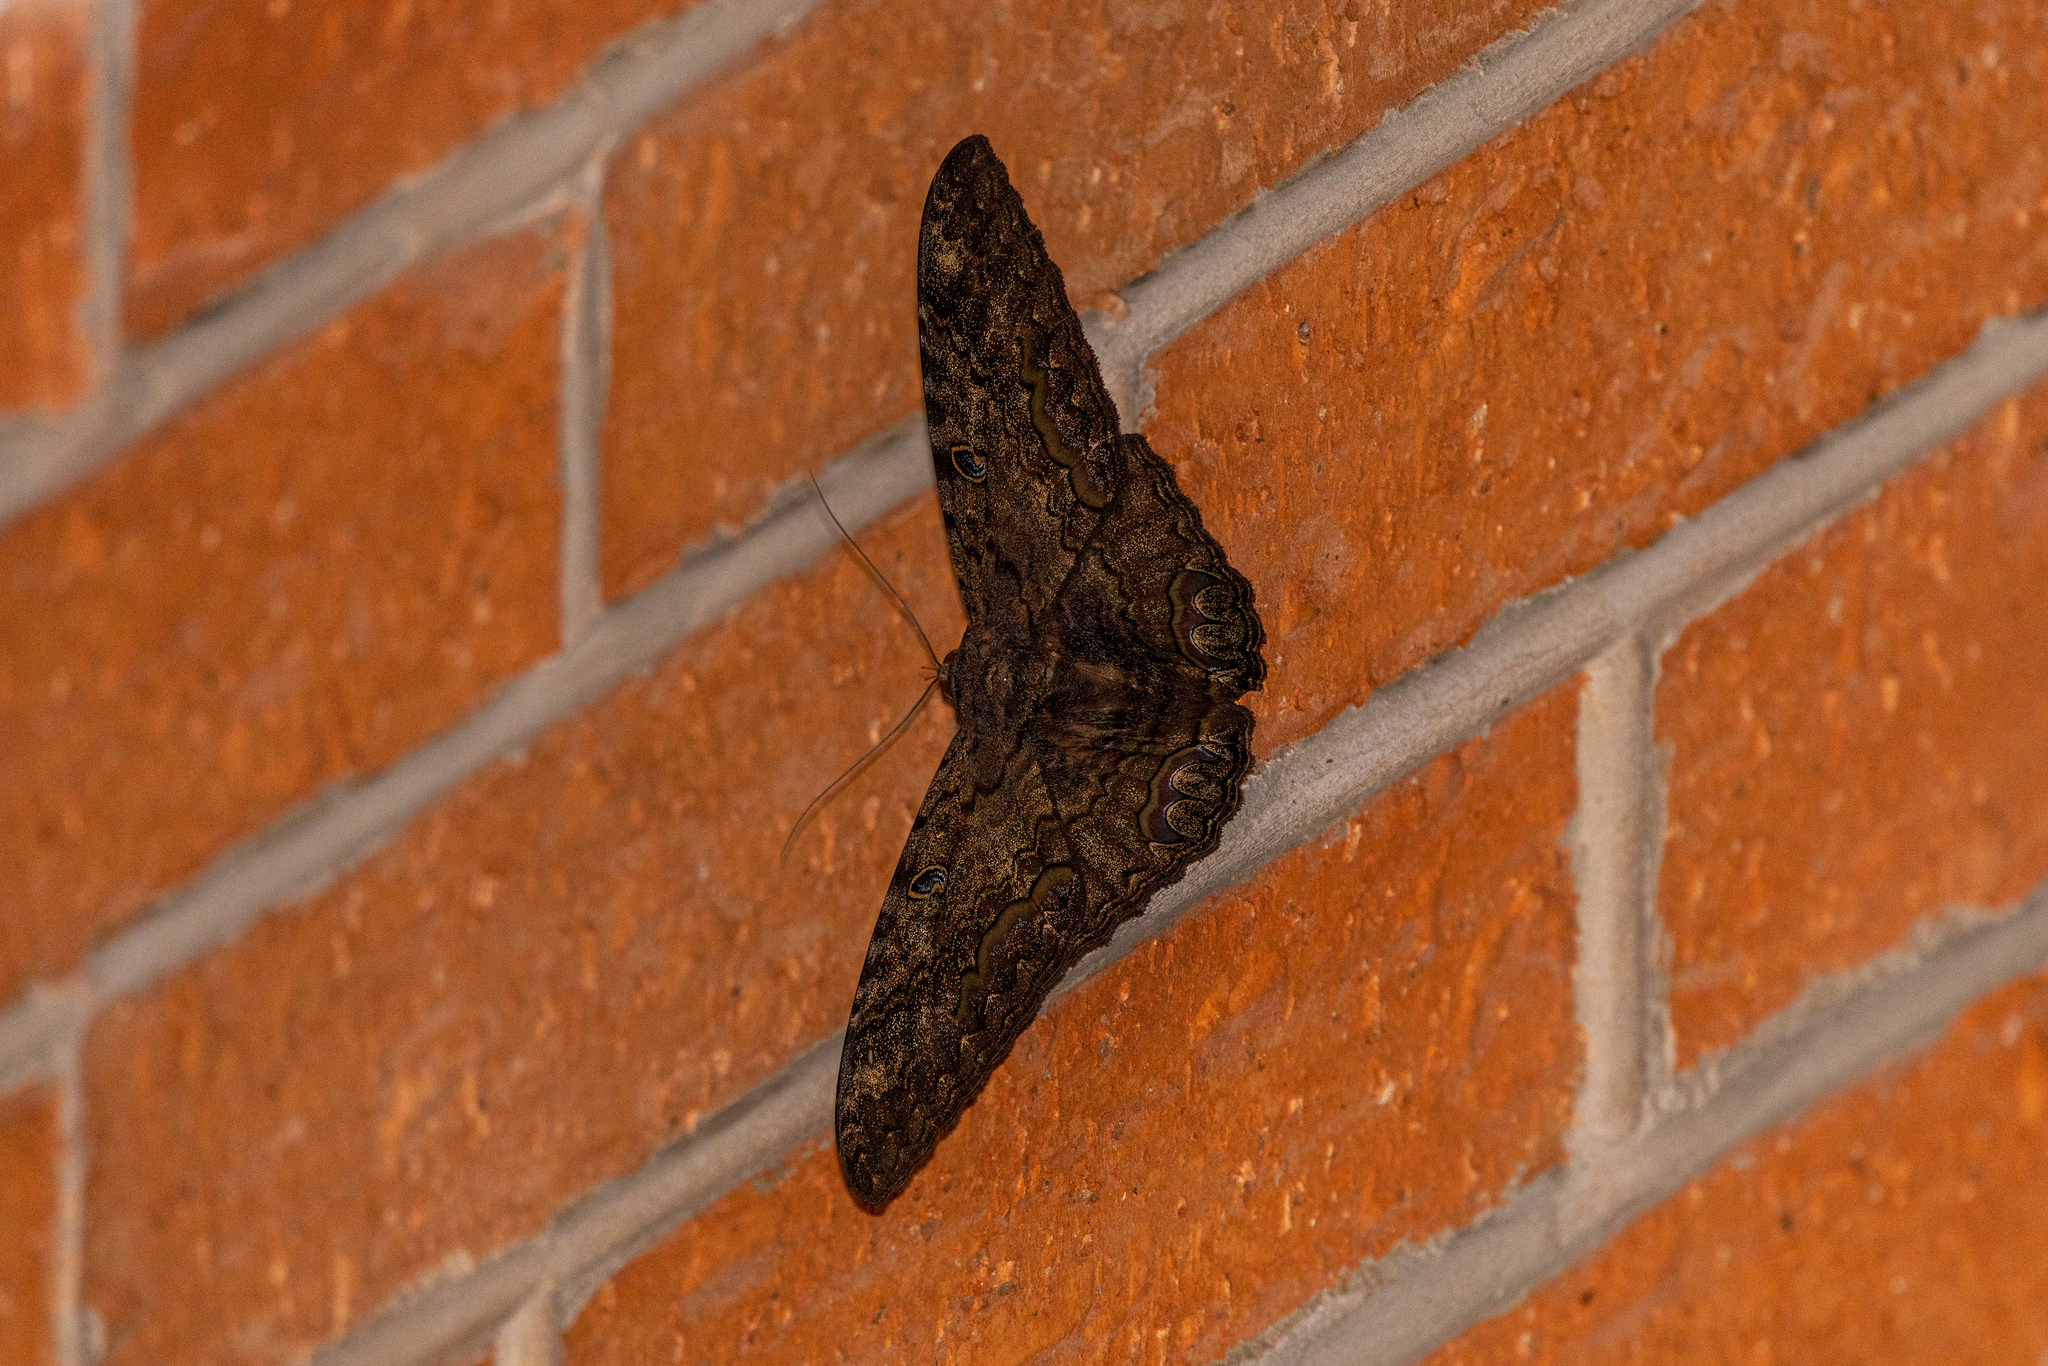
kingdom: Animalia
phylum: Arthropoda
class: Insecta
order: Lepidoptera
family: Erebidae
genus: Ascalapha
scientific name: Ascalapha odorata
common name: Black witch
